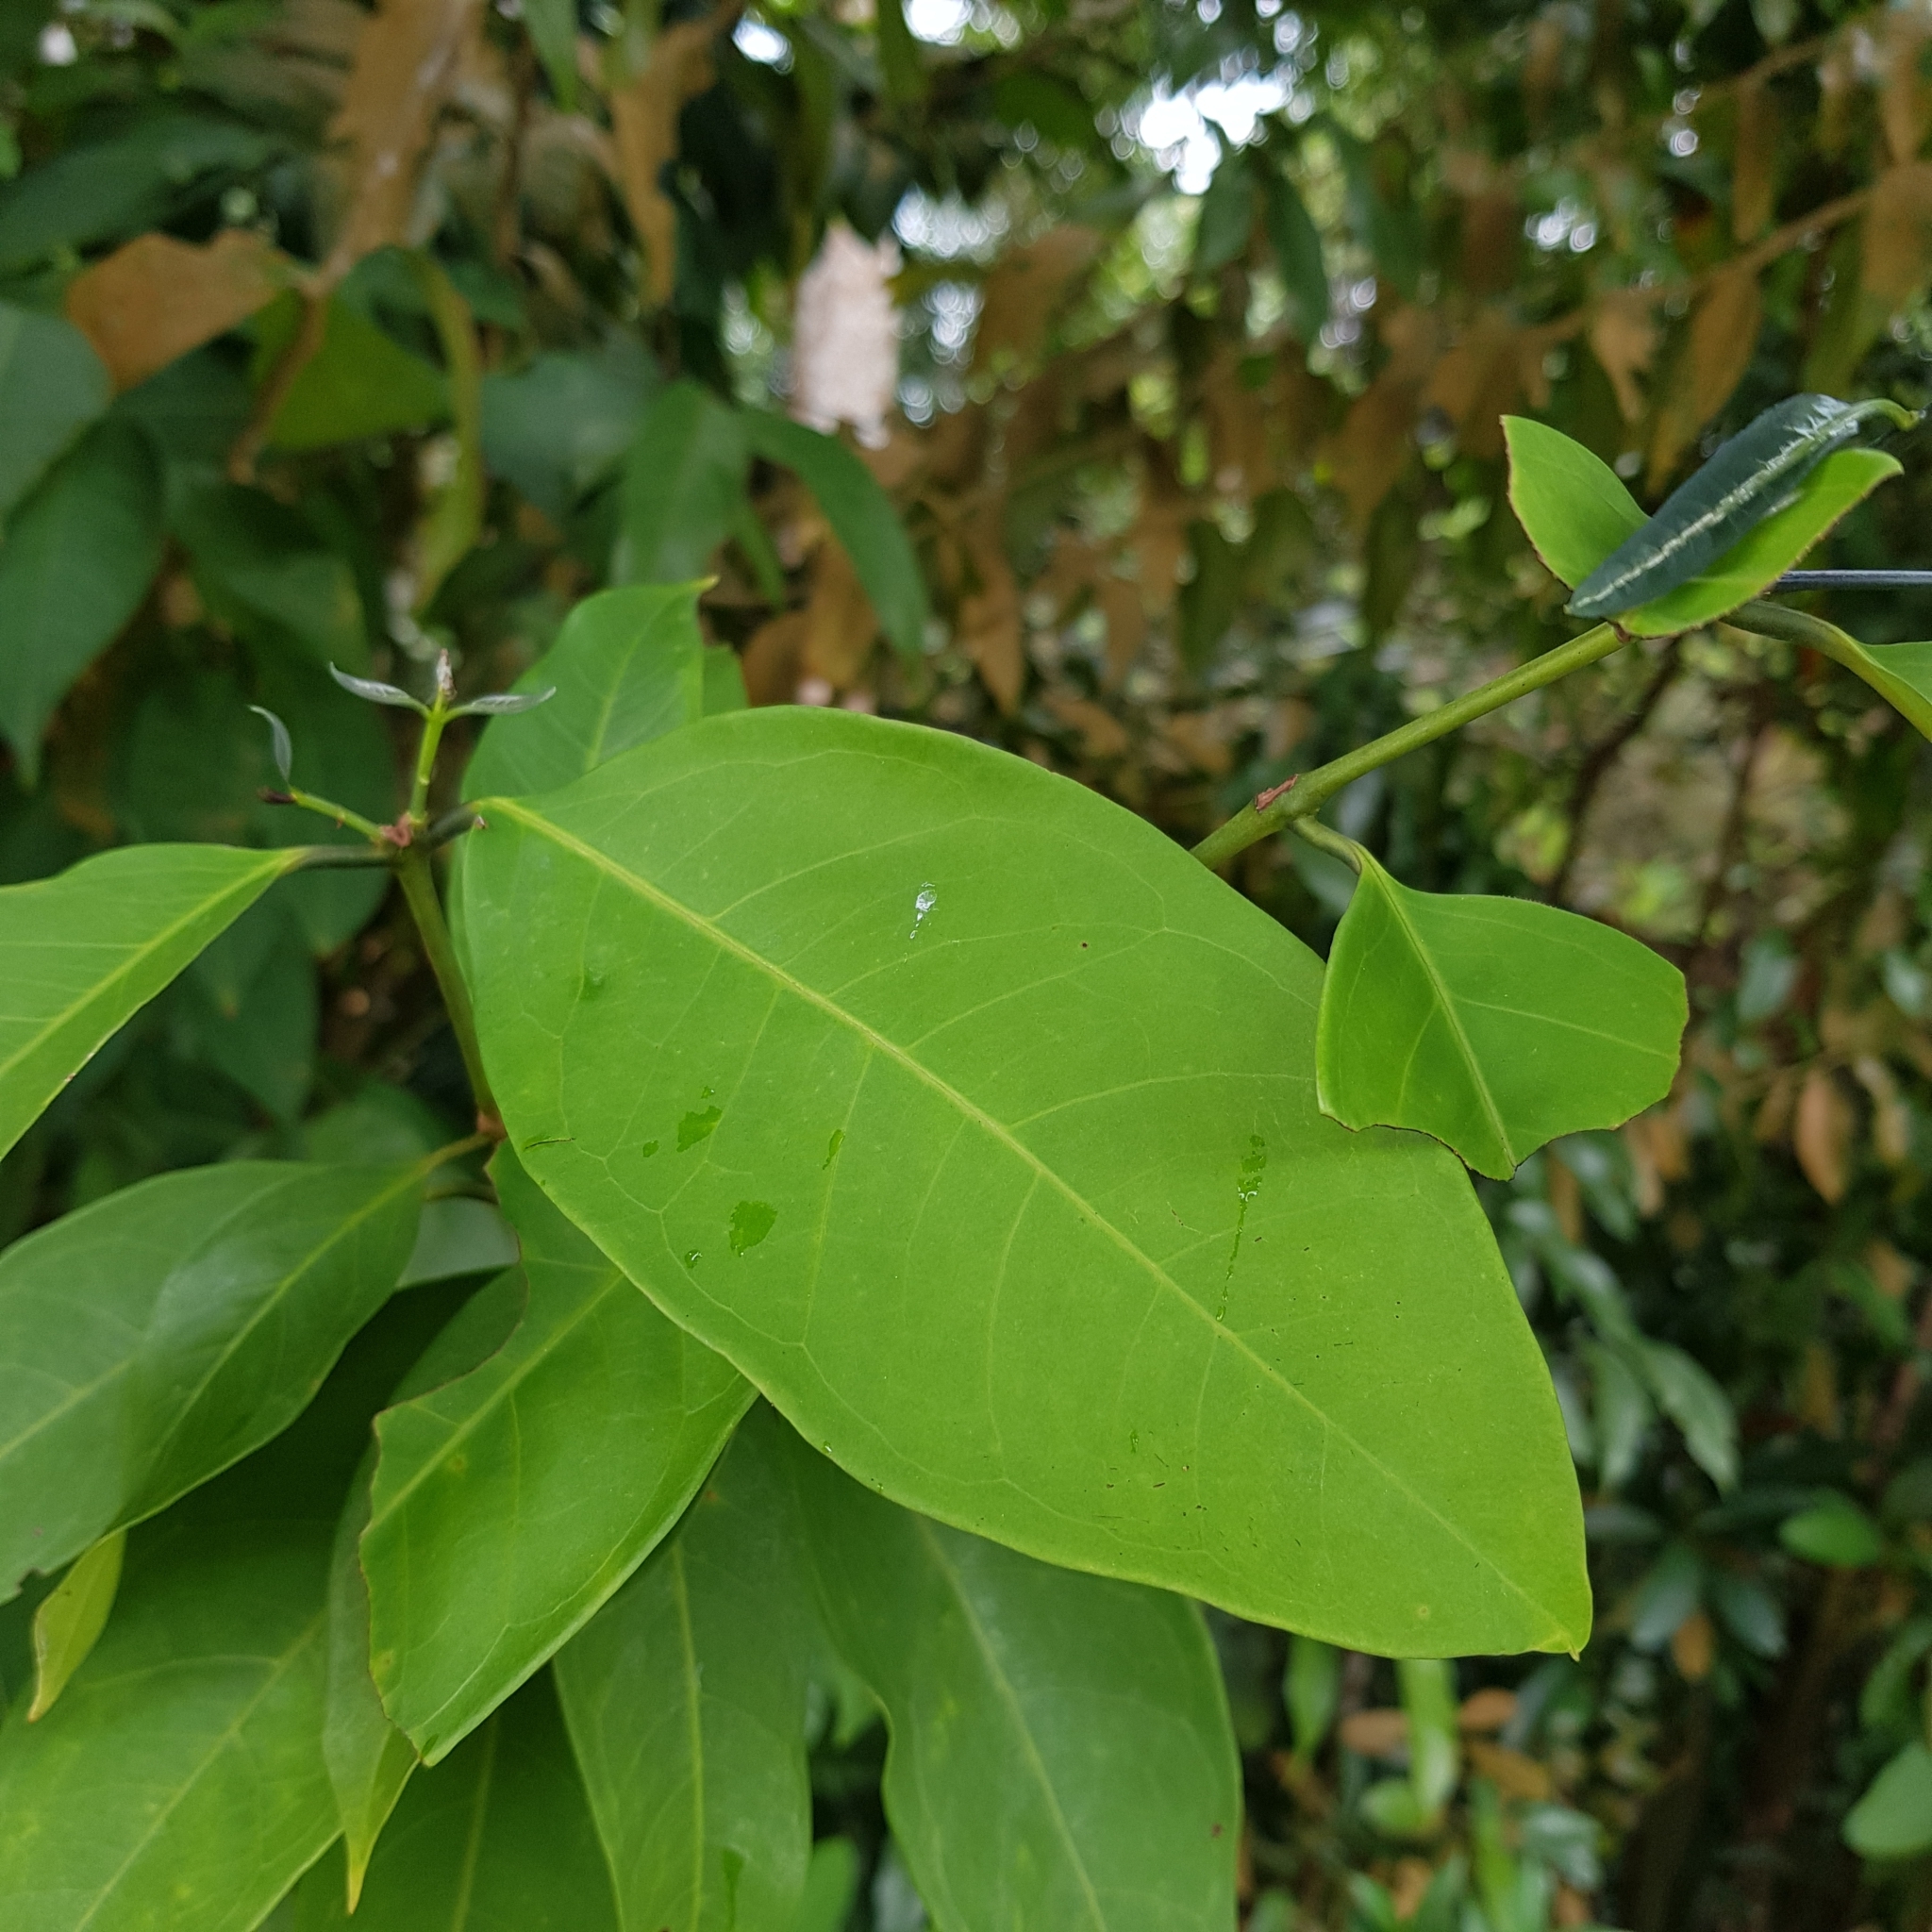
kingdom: Plantae
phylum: Tracheophyta
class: Magnoliopsida
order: Myrtales
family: Myrtaceae
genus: Syzygium
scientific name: Syzygium ridleyi
